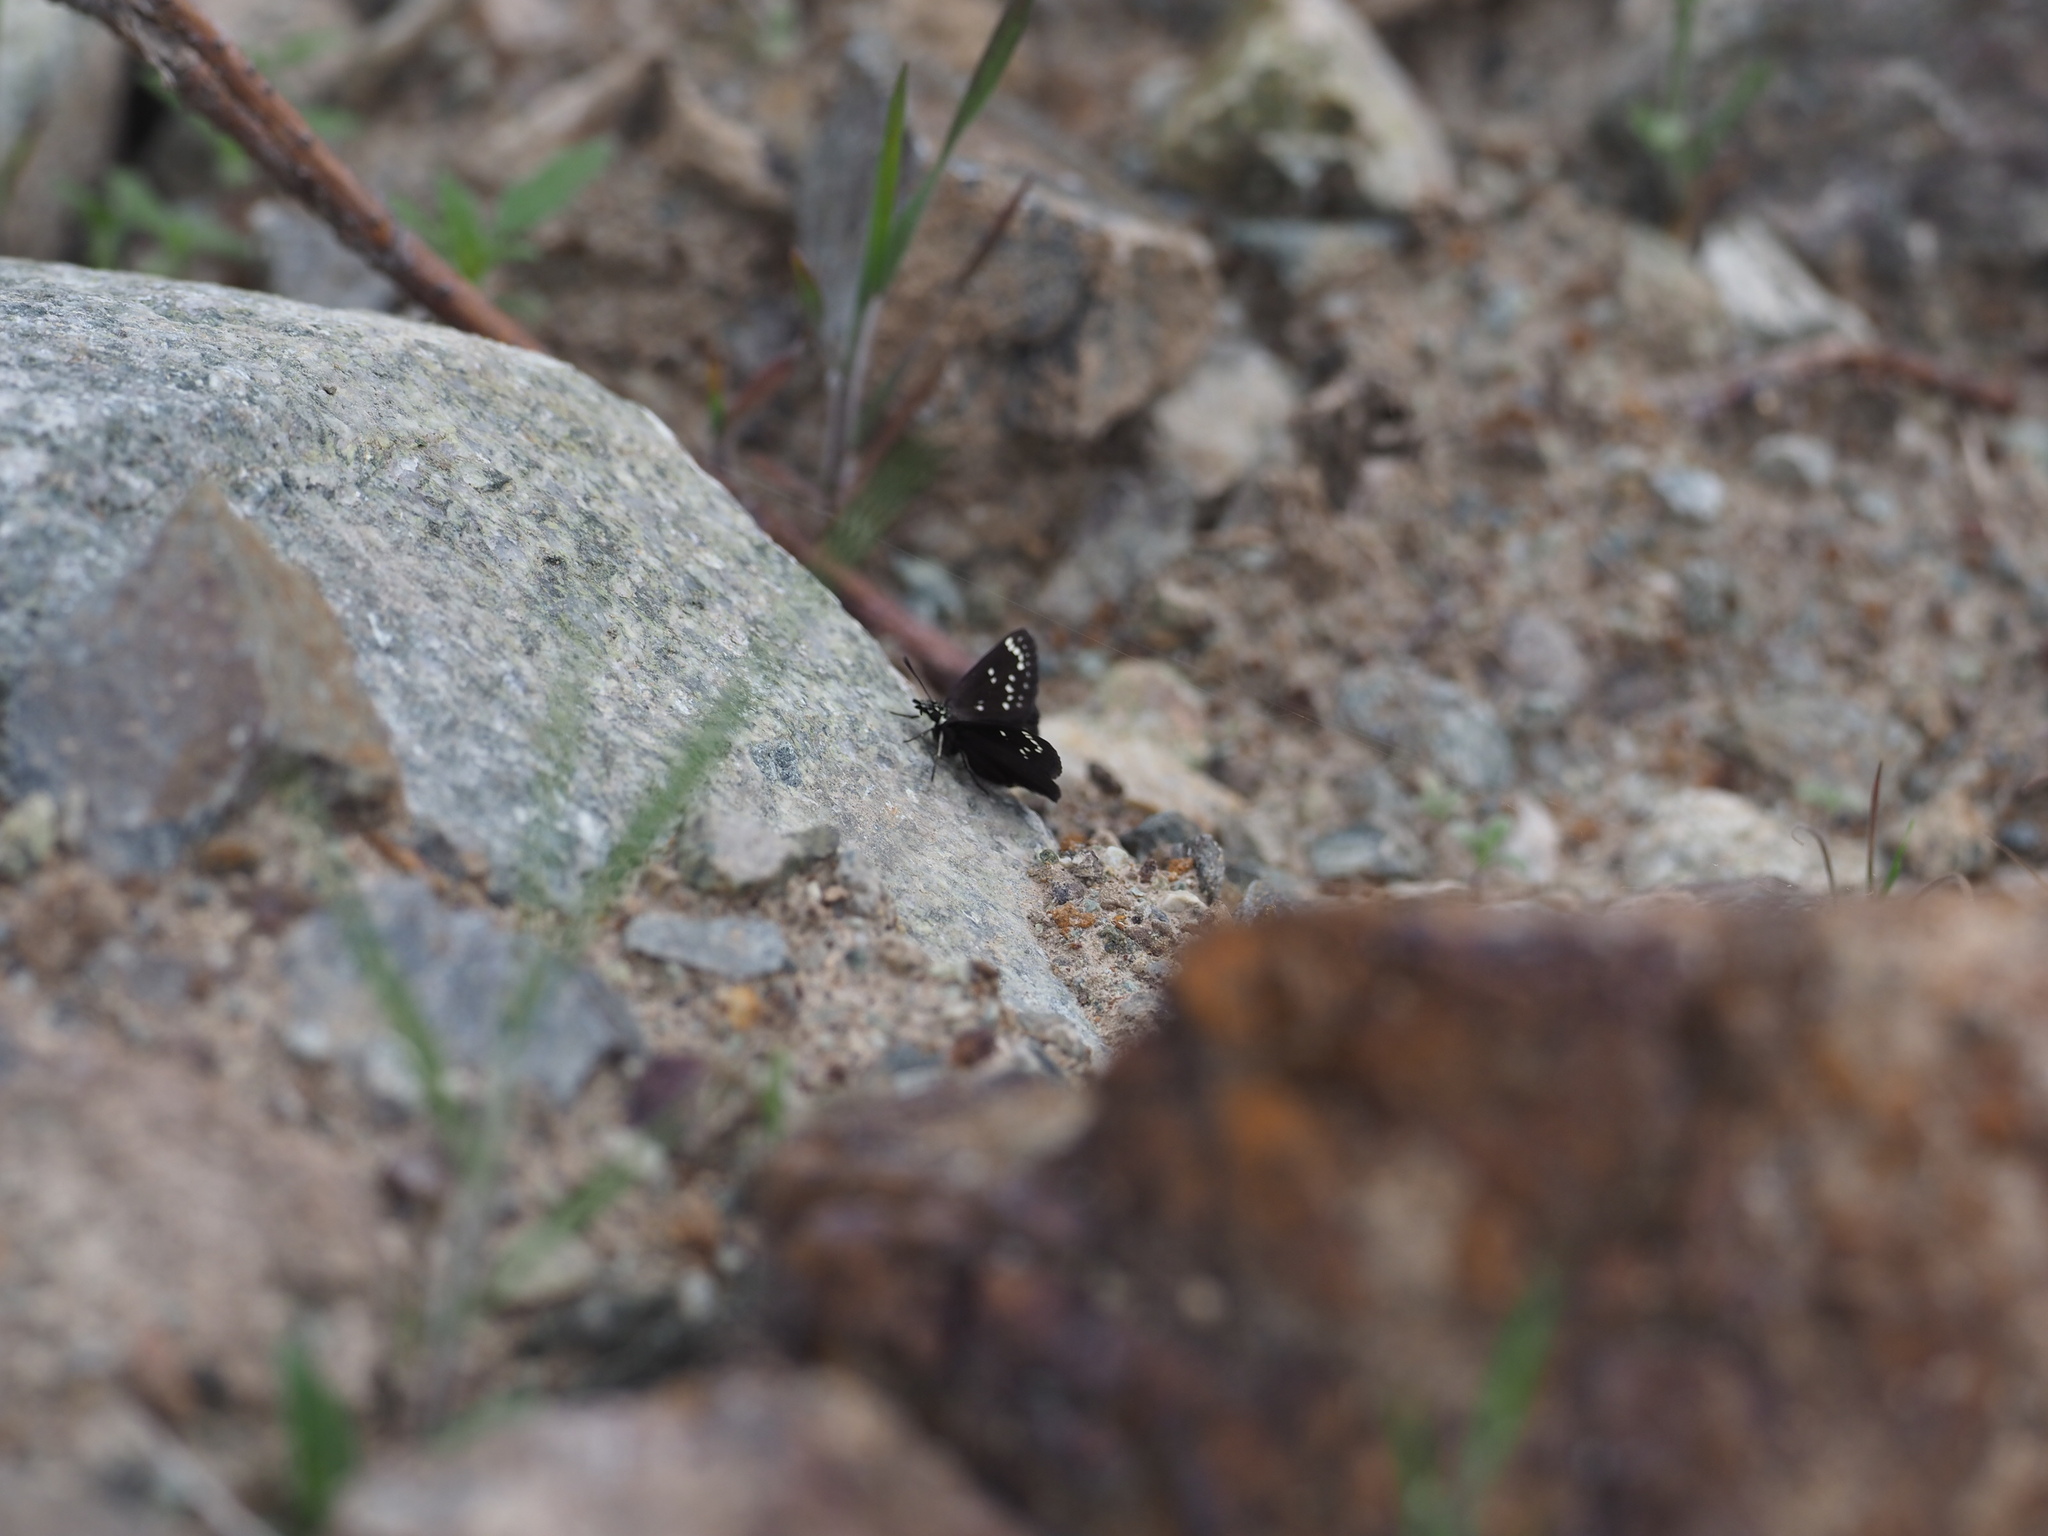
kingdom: Animalia
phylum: Arthropoda
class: Insecta
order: Lepidoptera
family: Hesperiidae
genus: Pholisora
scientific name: Pholisora catullus
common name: Common sootywing
